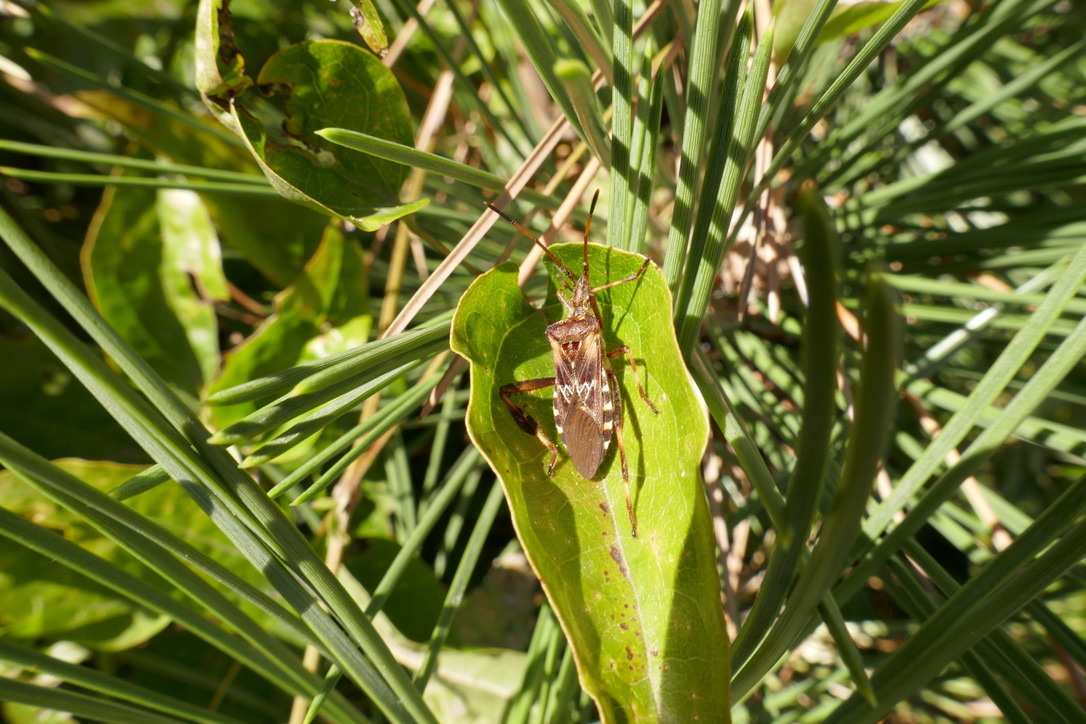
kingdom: Animalia
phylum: Arthropoda
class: Insecta
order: Hemiptera
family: Coreidae
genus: Leptoglossus
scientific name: Leptoglossus occidentalis
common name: Western conifer-seed bug
